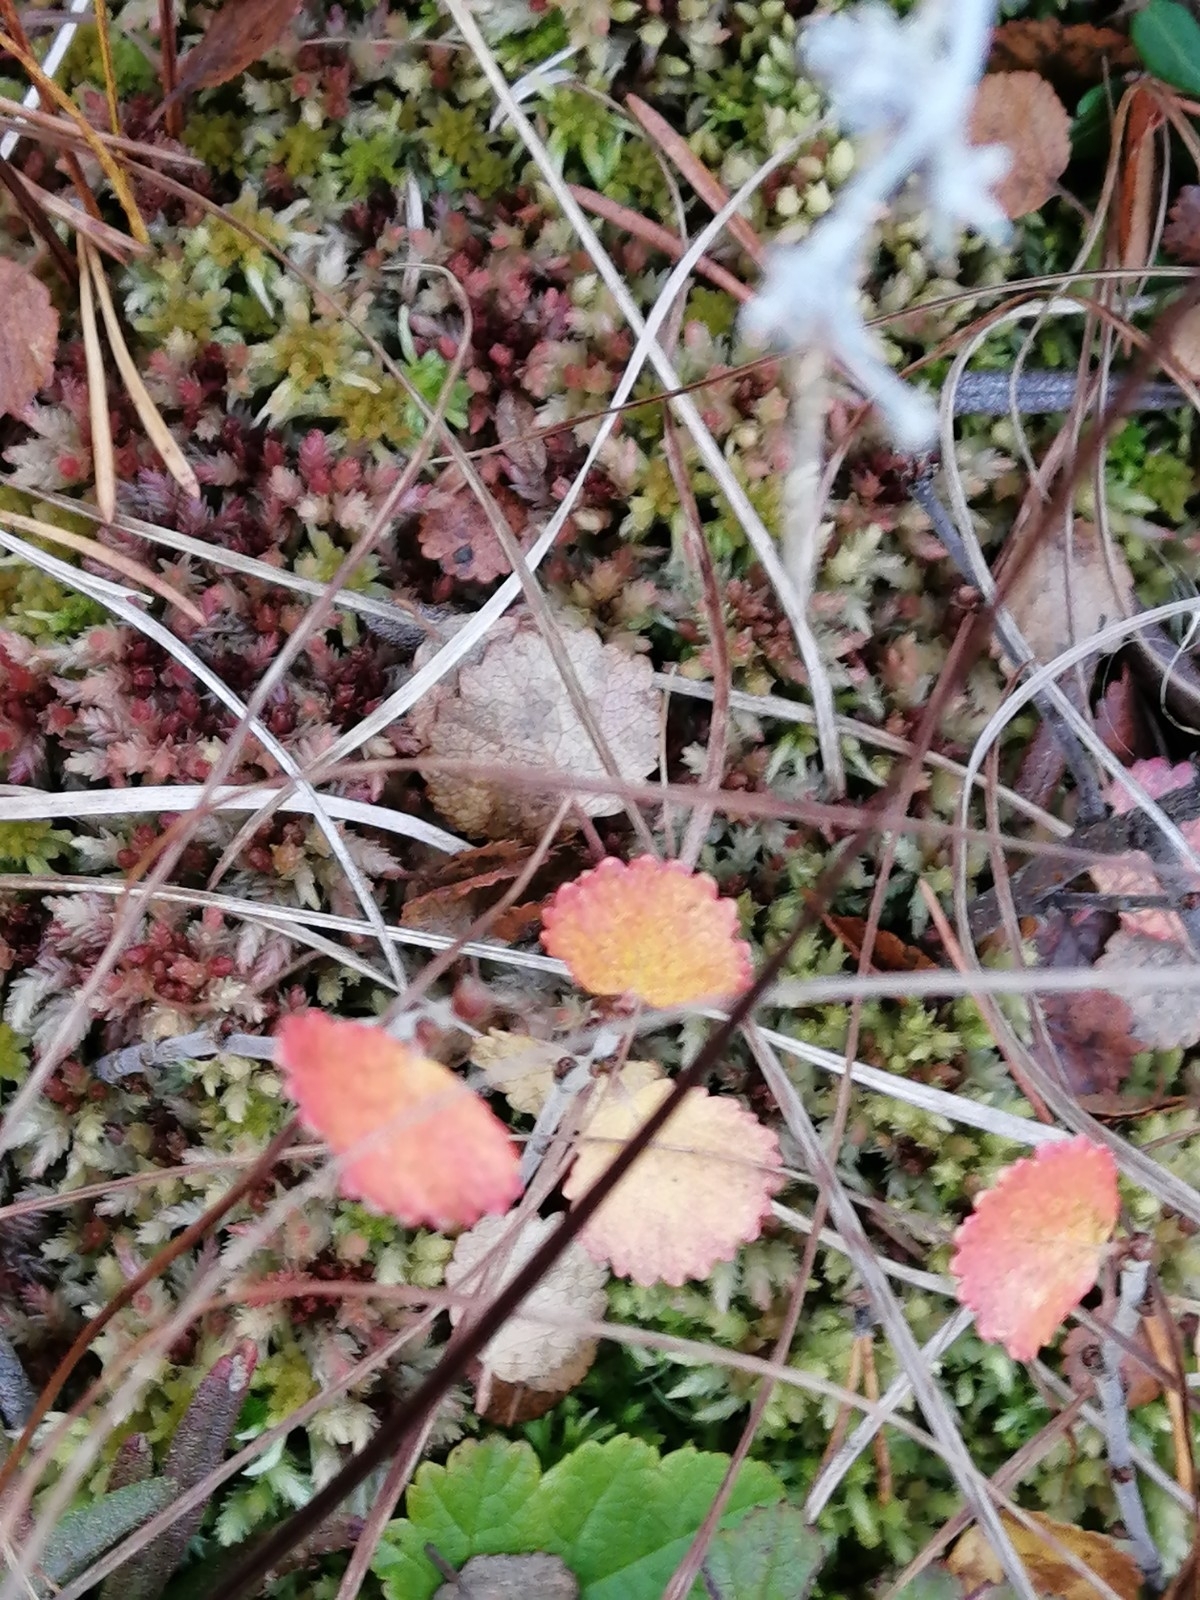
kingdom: Plantae
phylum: Tracheophyta
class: Magnoliopsida
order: Fagales
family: Betulaceae
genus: Betula
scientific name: Betula nana
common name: Arctic dwarf birch
